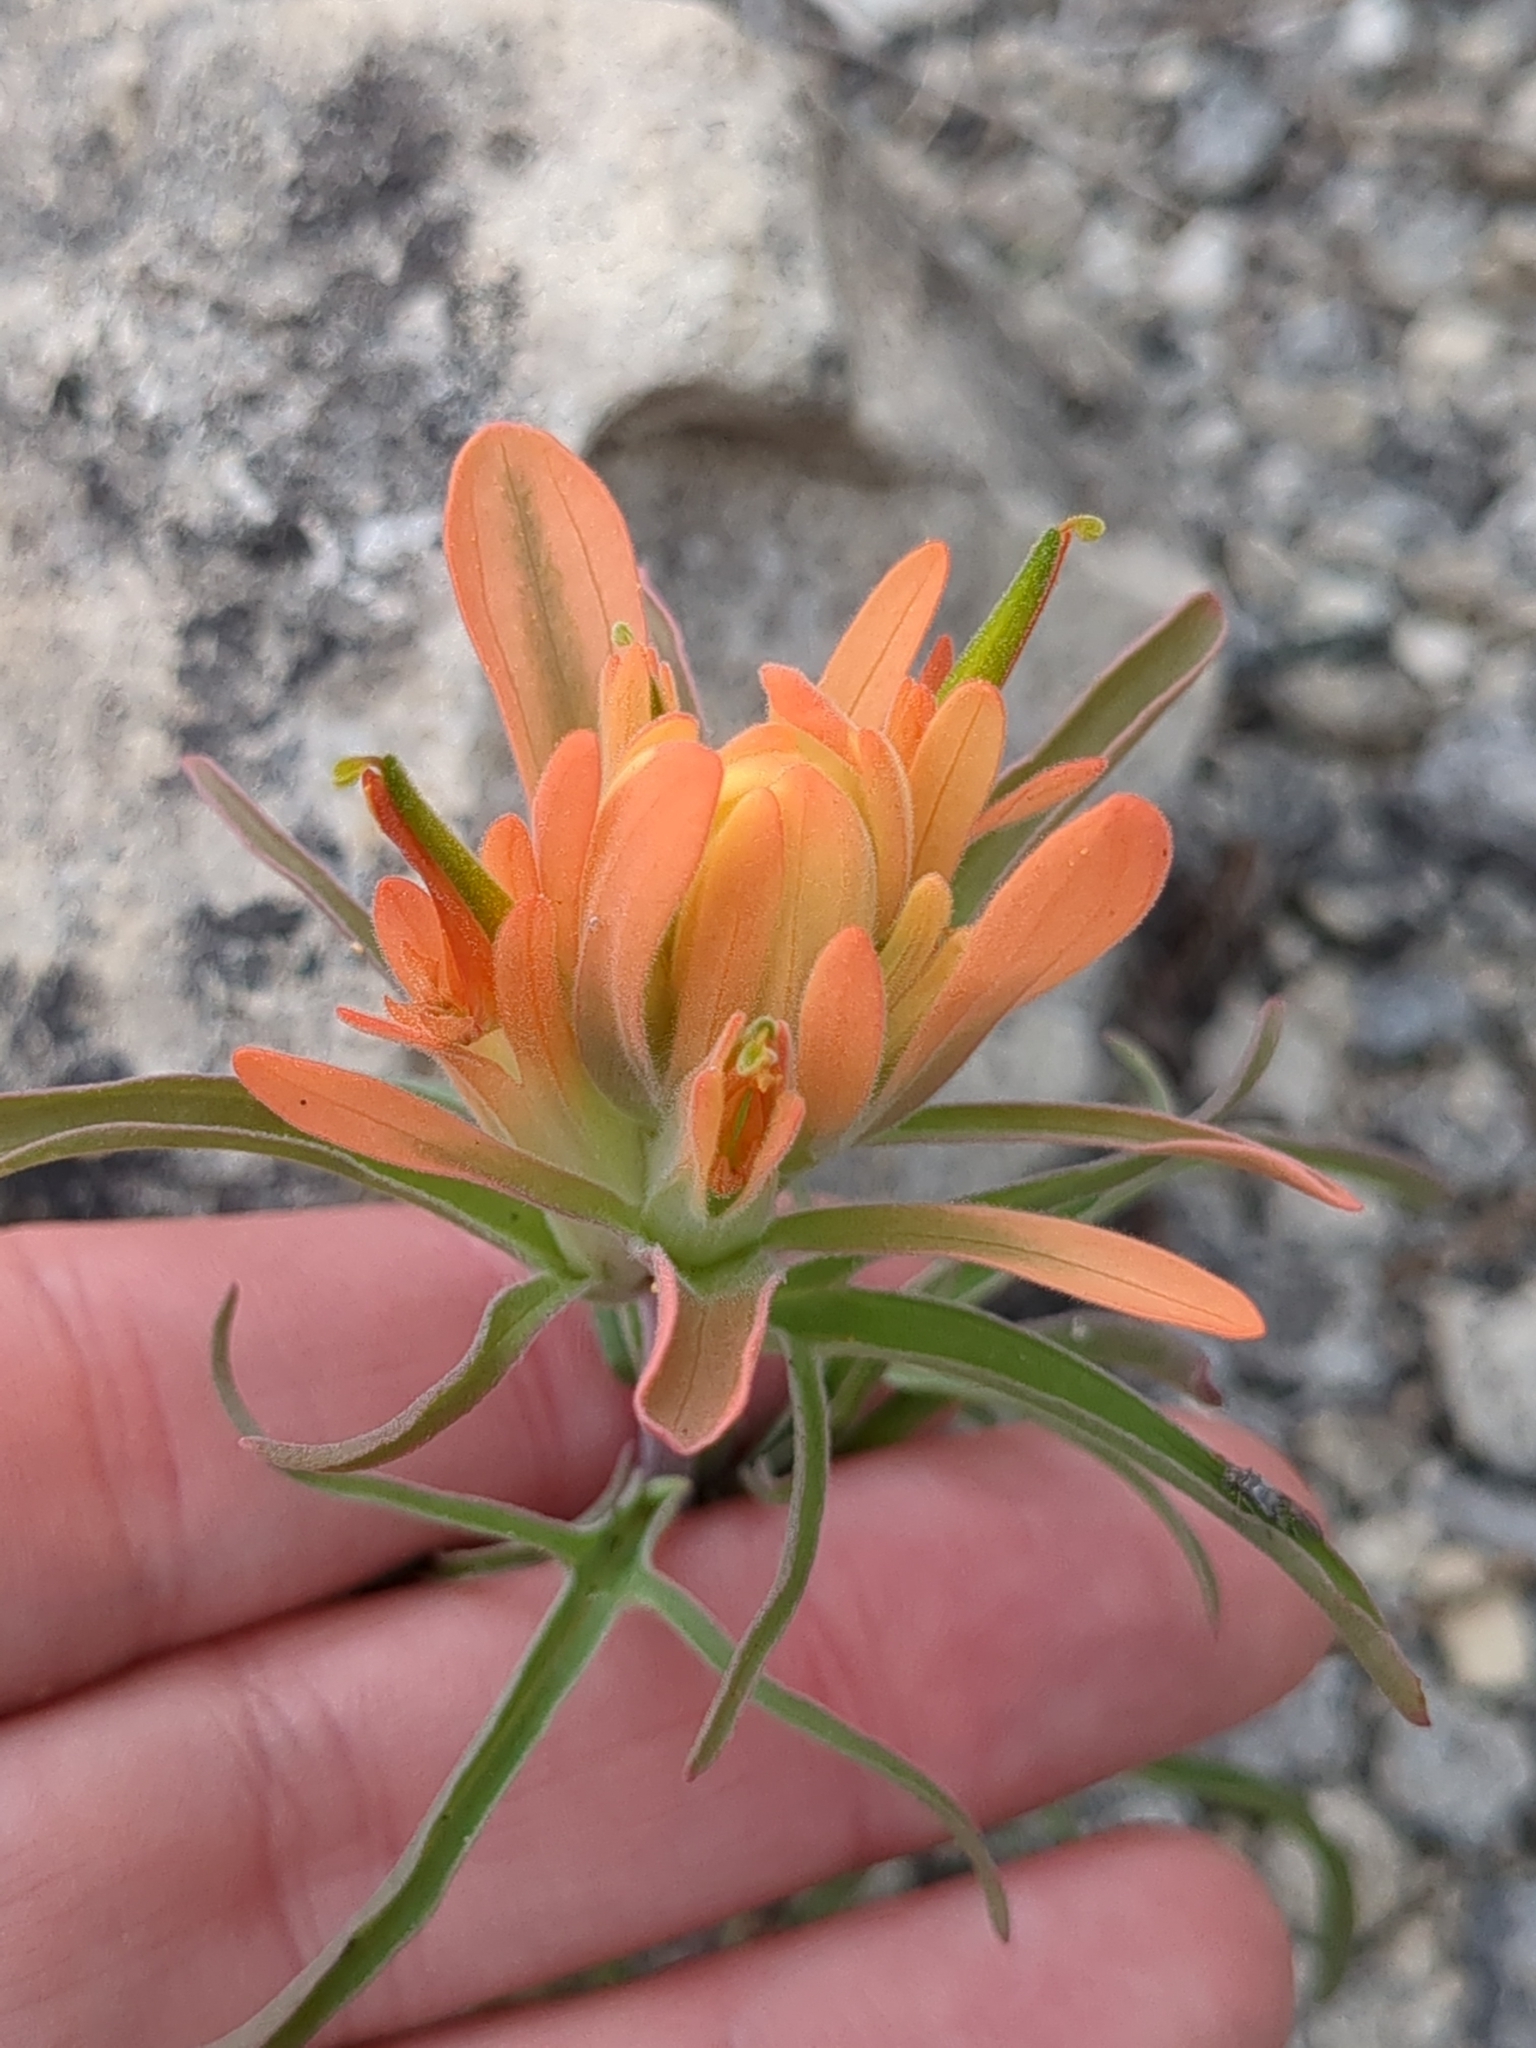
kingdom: Plantae
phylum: Tracheophyta
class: Magnoliopsida
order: Lamiales
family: Orobanchaceae
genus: Castilleja
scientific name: Castilleja lindheimeri
